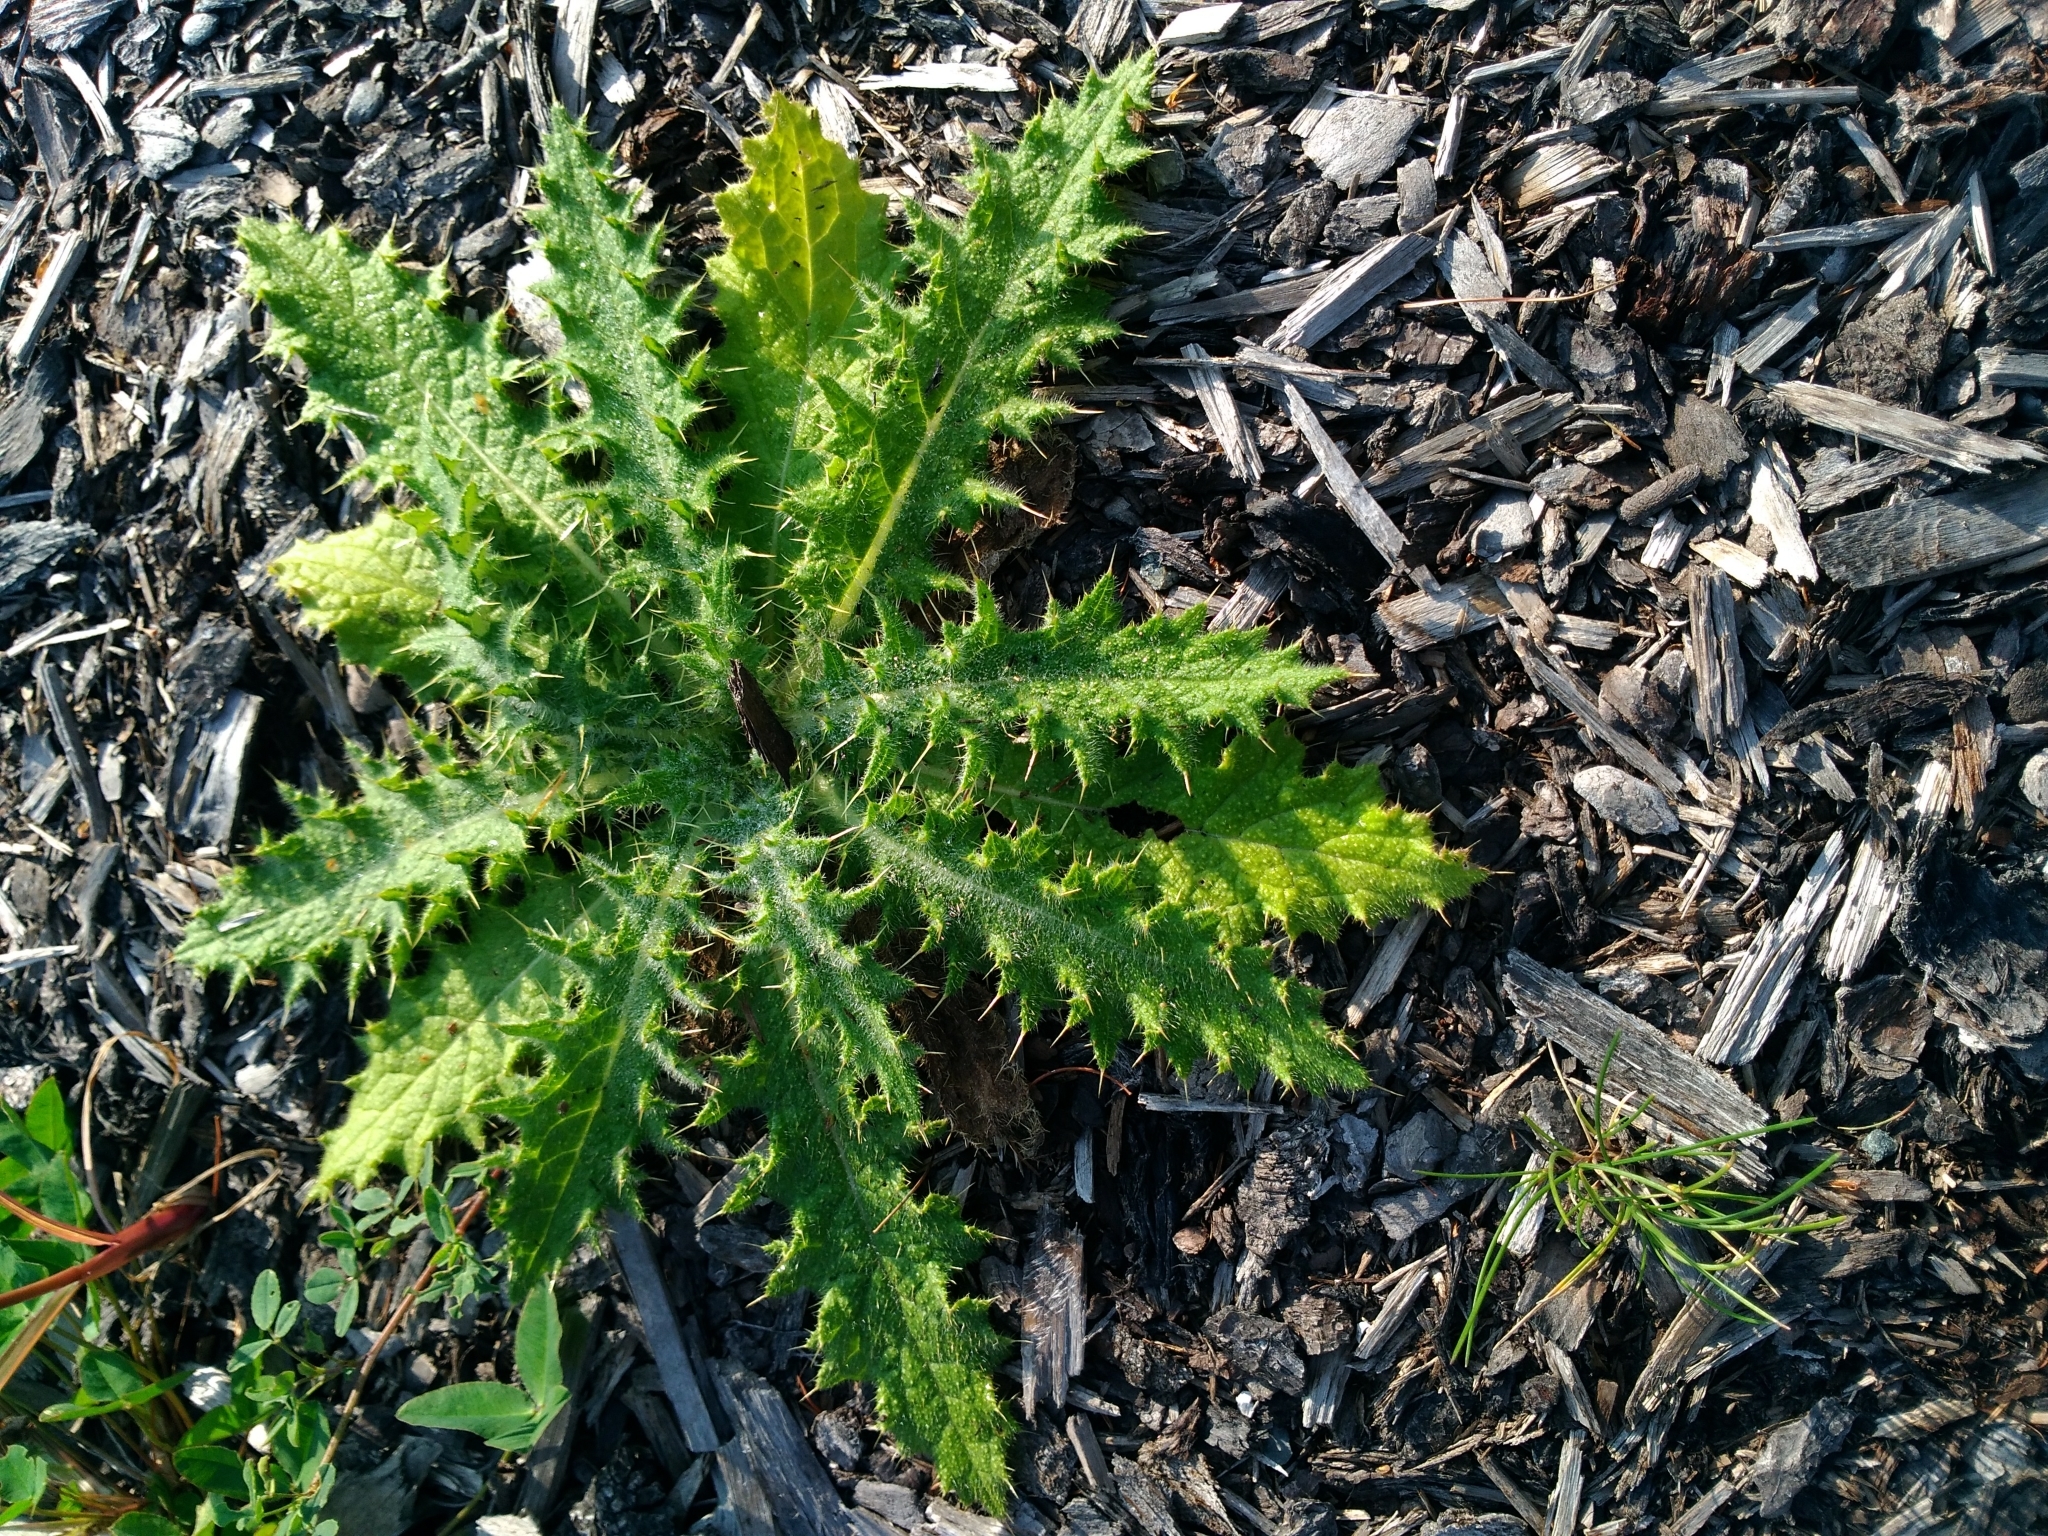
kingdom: Plantae
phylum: Tracheophyta
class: Magnoliopsida
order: Asterales
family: Asteraceae
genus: Cirsium
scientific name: Cirsium vulgare
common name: Bull thistle
